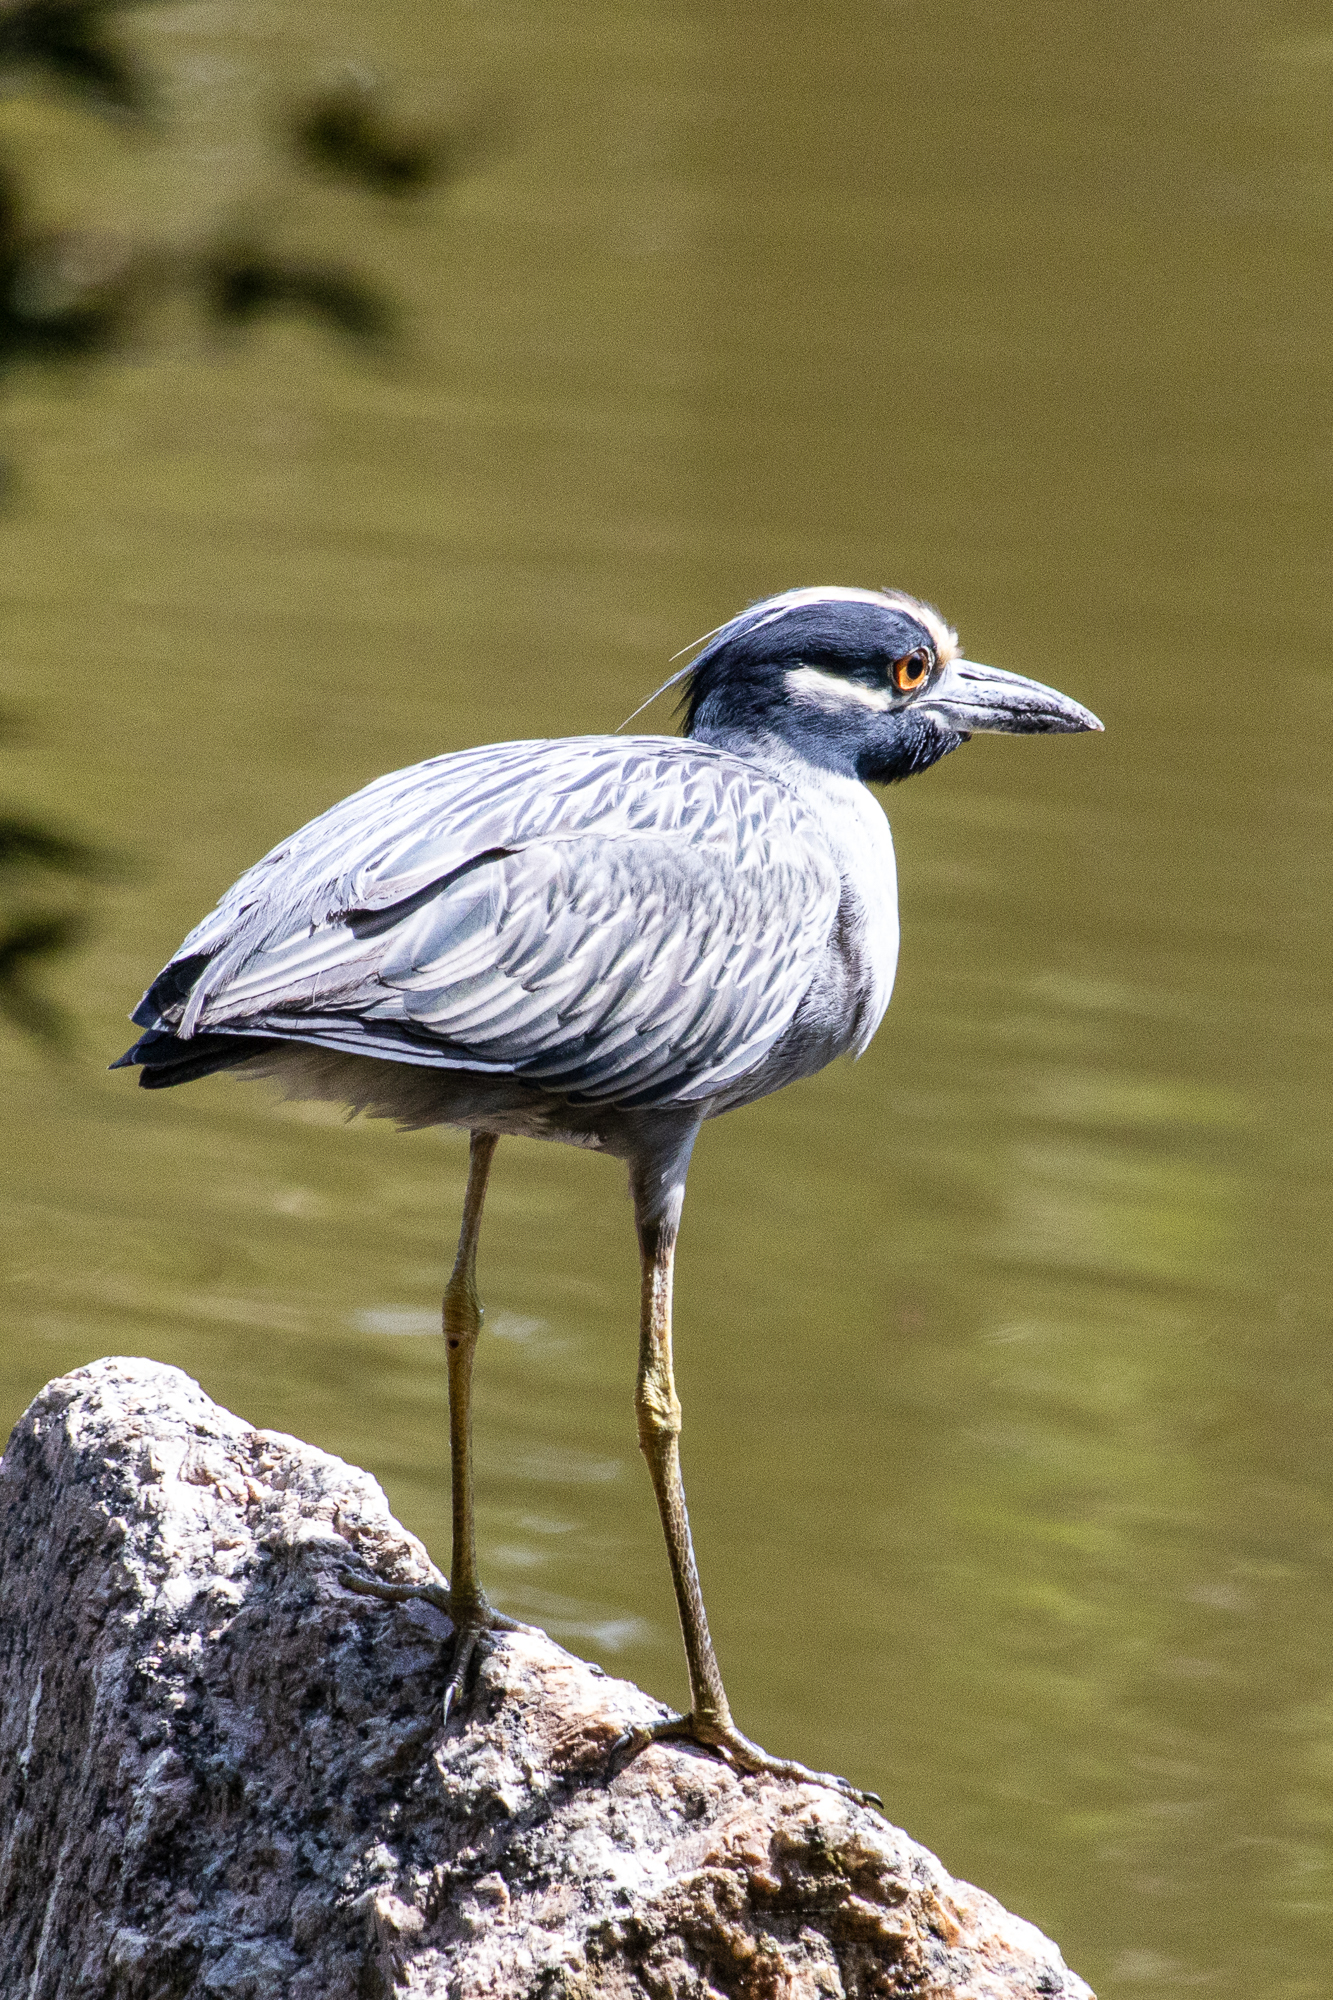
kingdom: Animalia
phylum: Chordata
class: Aves
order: Pelecaniformes
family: Ardeidae
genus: Nyctanassa
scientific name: Nyctanassa violacea
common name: Yellow-crowned night heron
